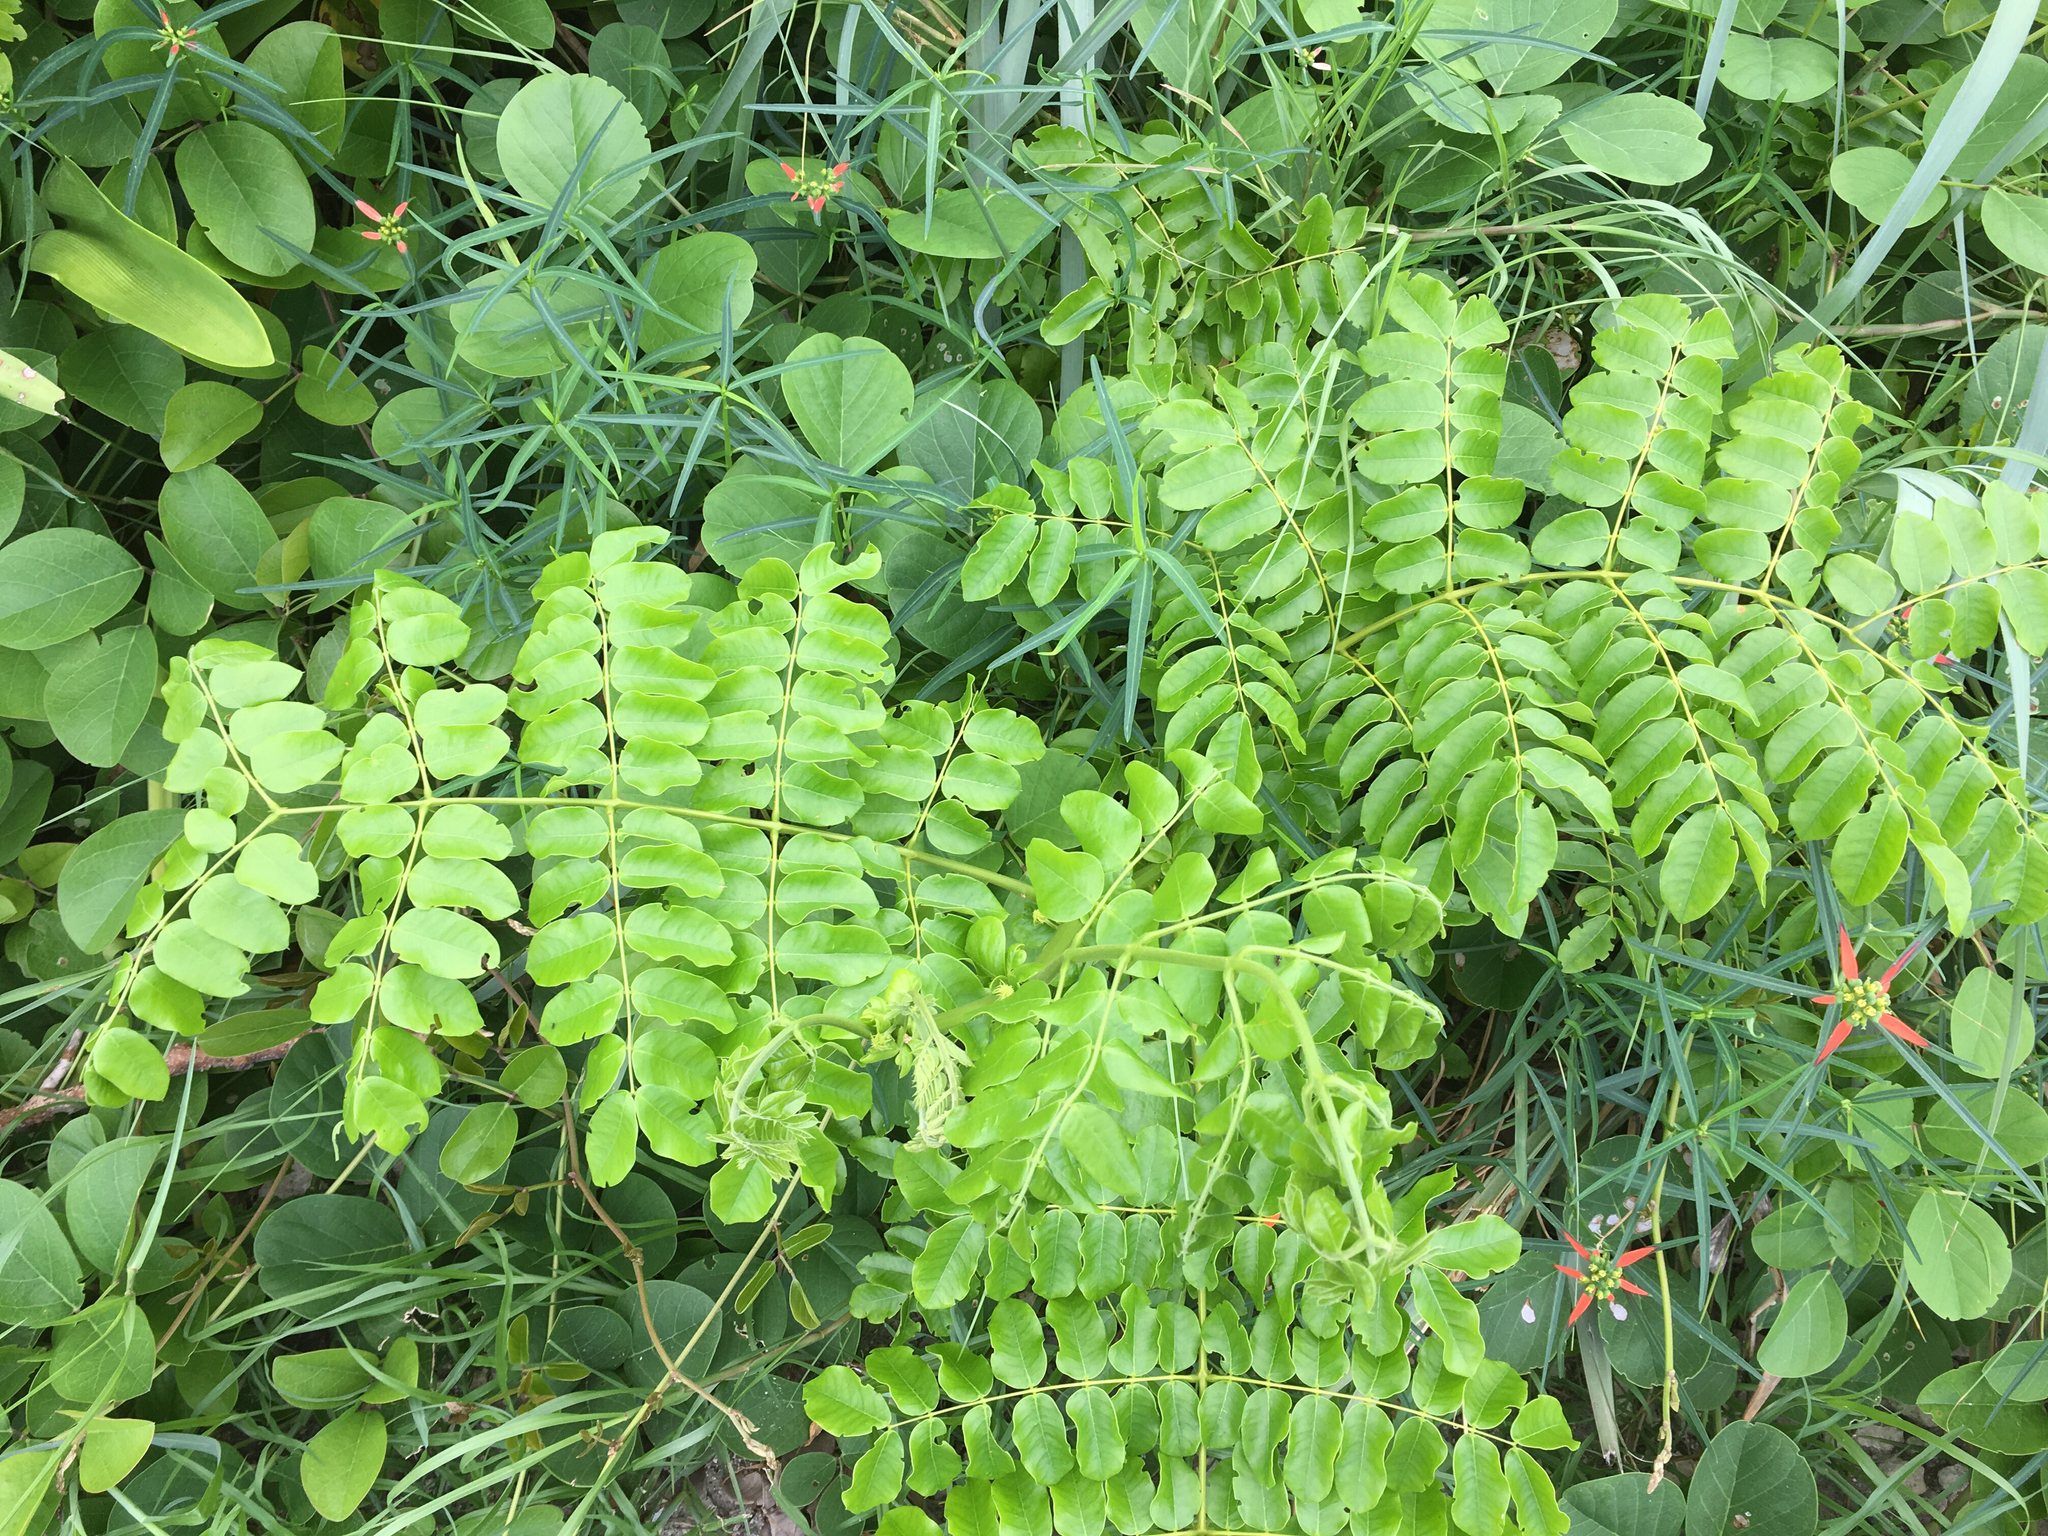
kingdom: Plantae
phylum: Tracheophyta
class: Magnoliopsida
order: Fabales
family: Fabaceae
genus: Guilandina
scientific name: Guilandina bonduc
